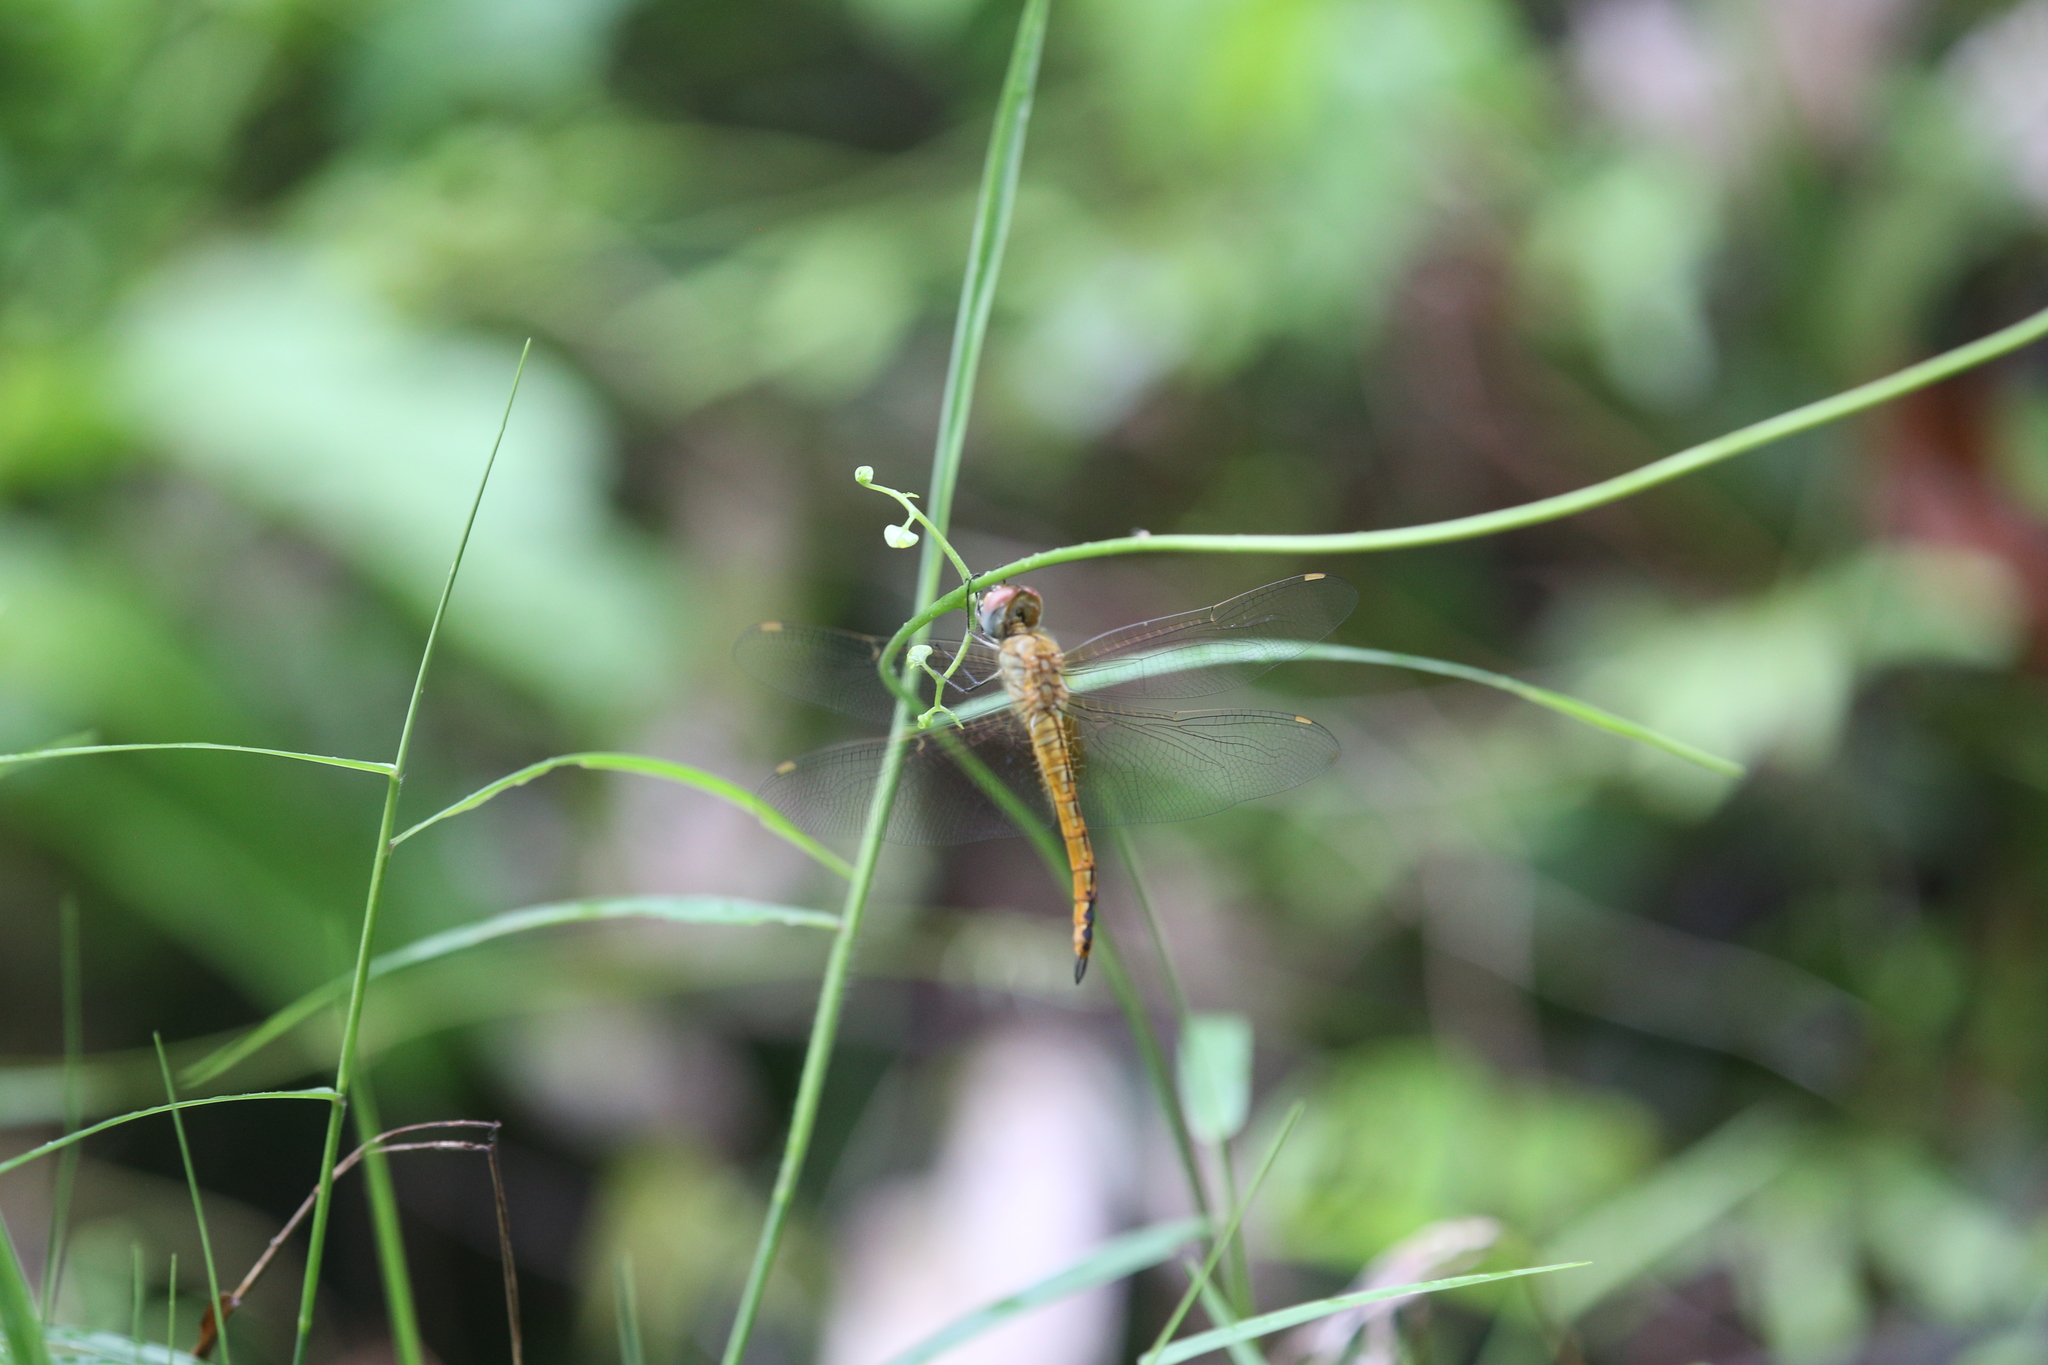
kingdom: Animalia
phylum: Arthropoda
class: Insecta
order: Odonata
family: Libellulidae
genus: Pantala
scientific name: Pantala flavescens
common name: Wandering glider
